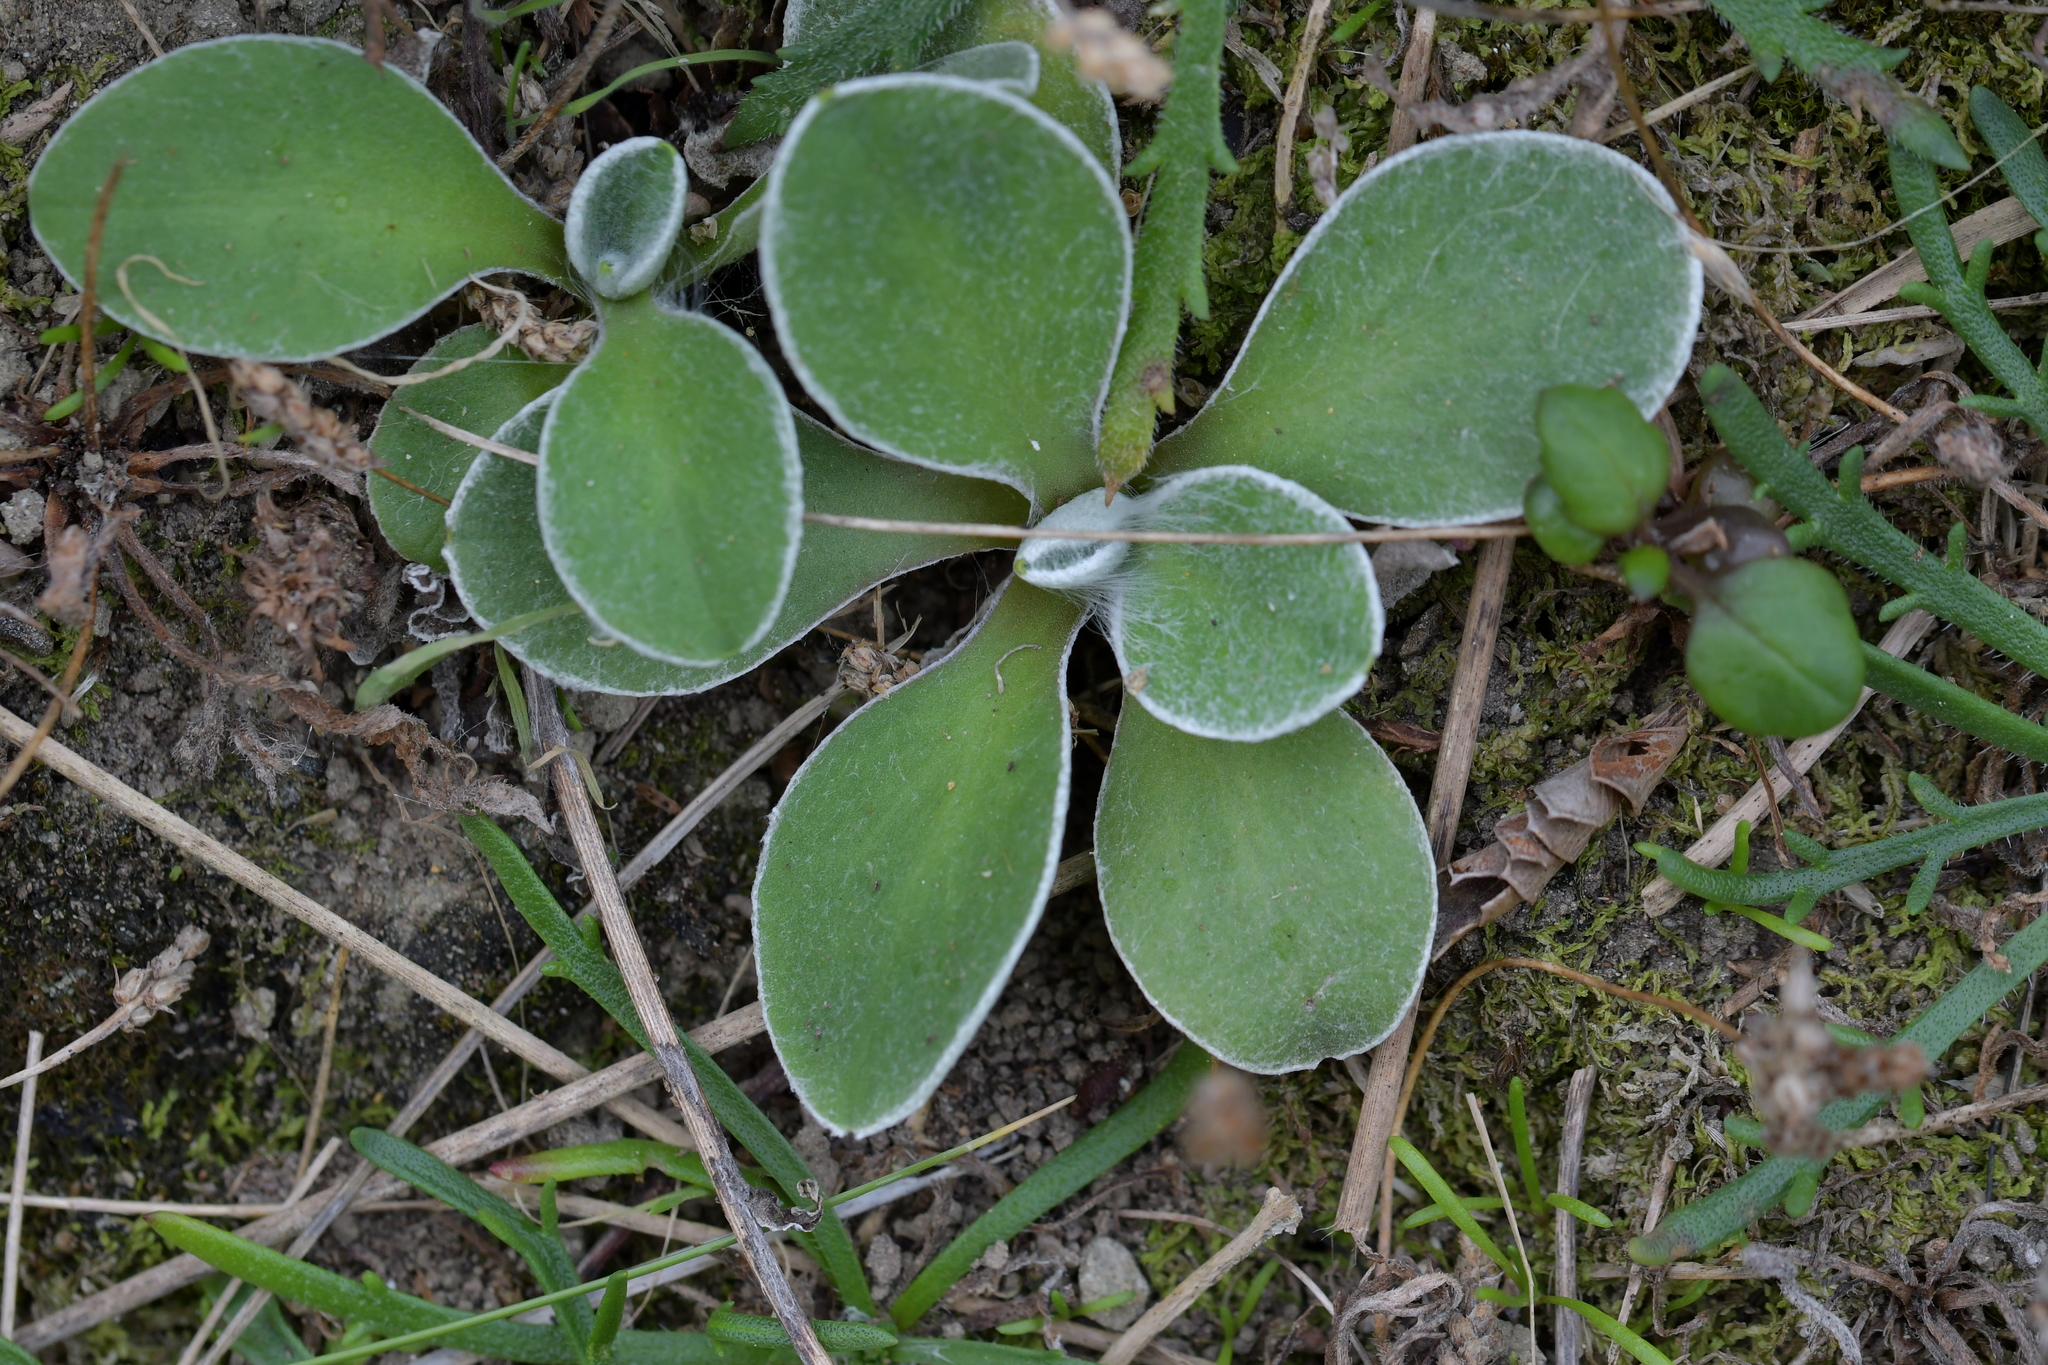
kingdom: Plantae
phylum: Tracheophyta
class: Magnoliopsida
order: Asterales
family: Asteraceae
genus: Craspedia
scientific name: Craspedia uniflora
